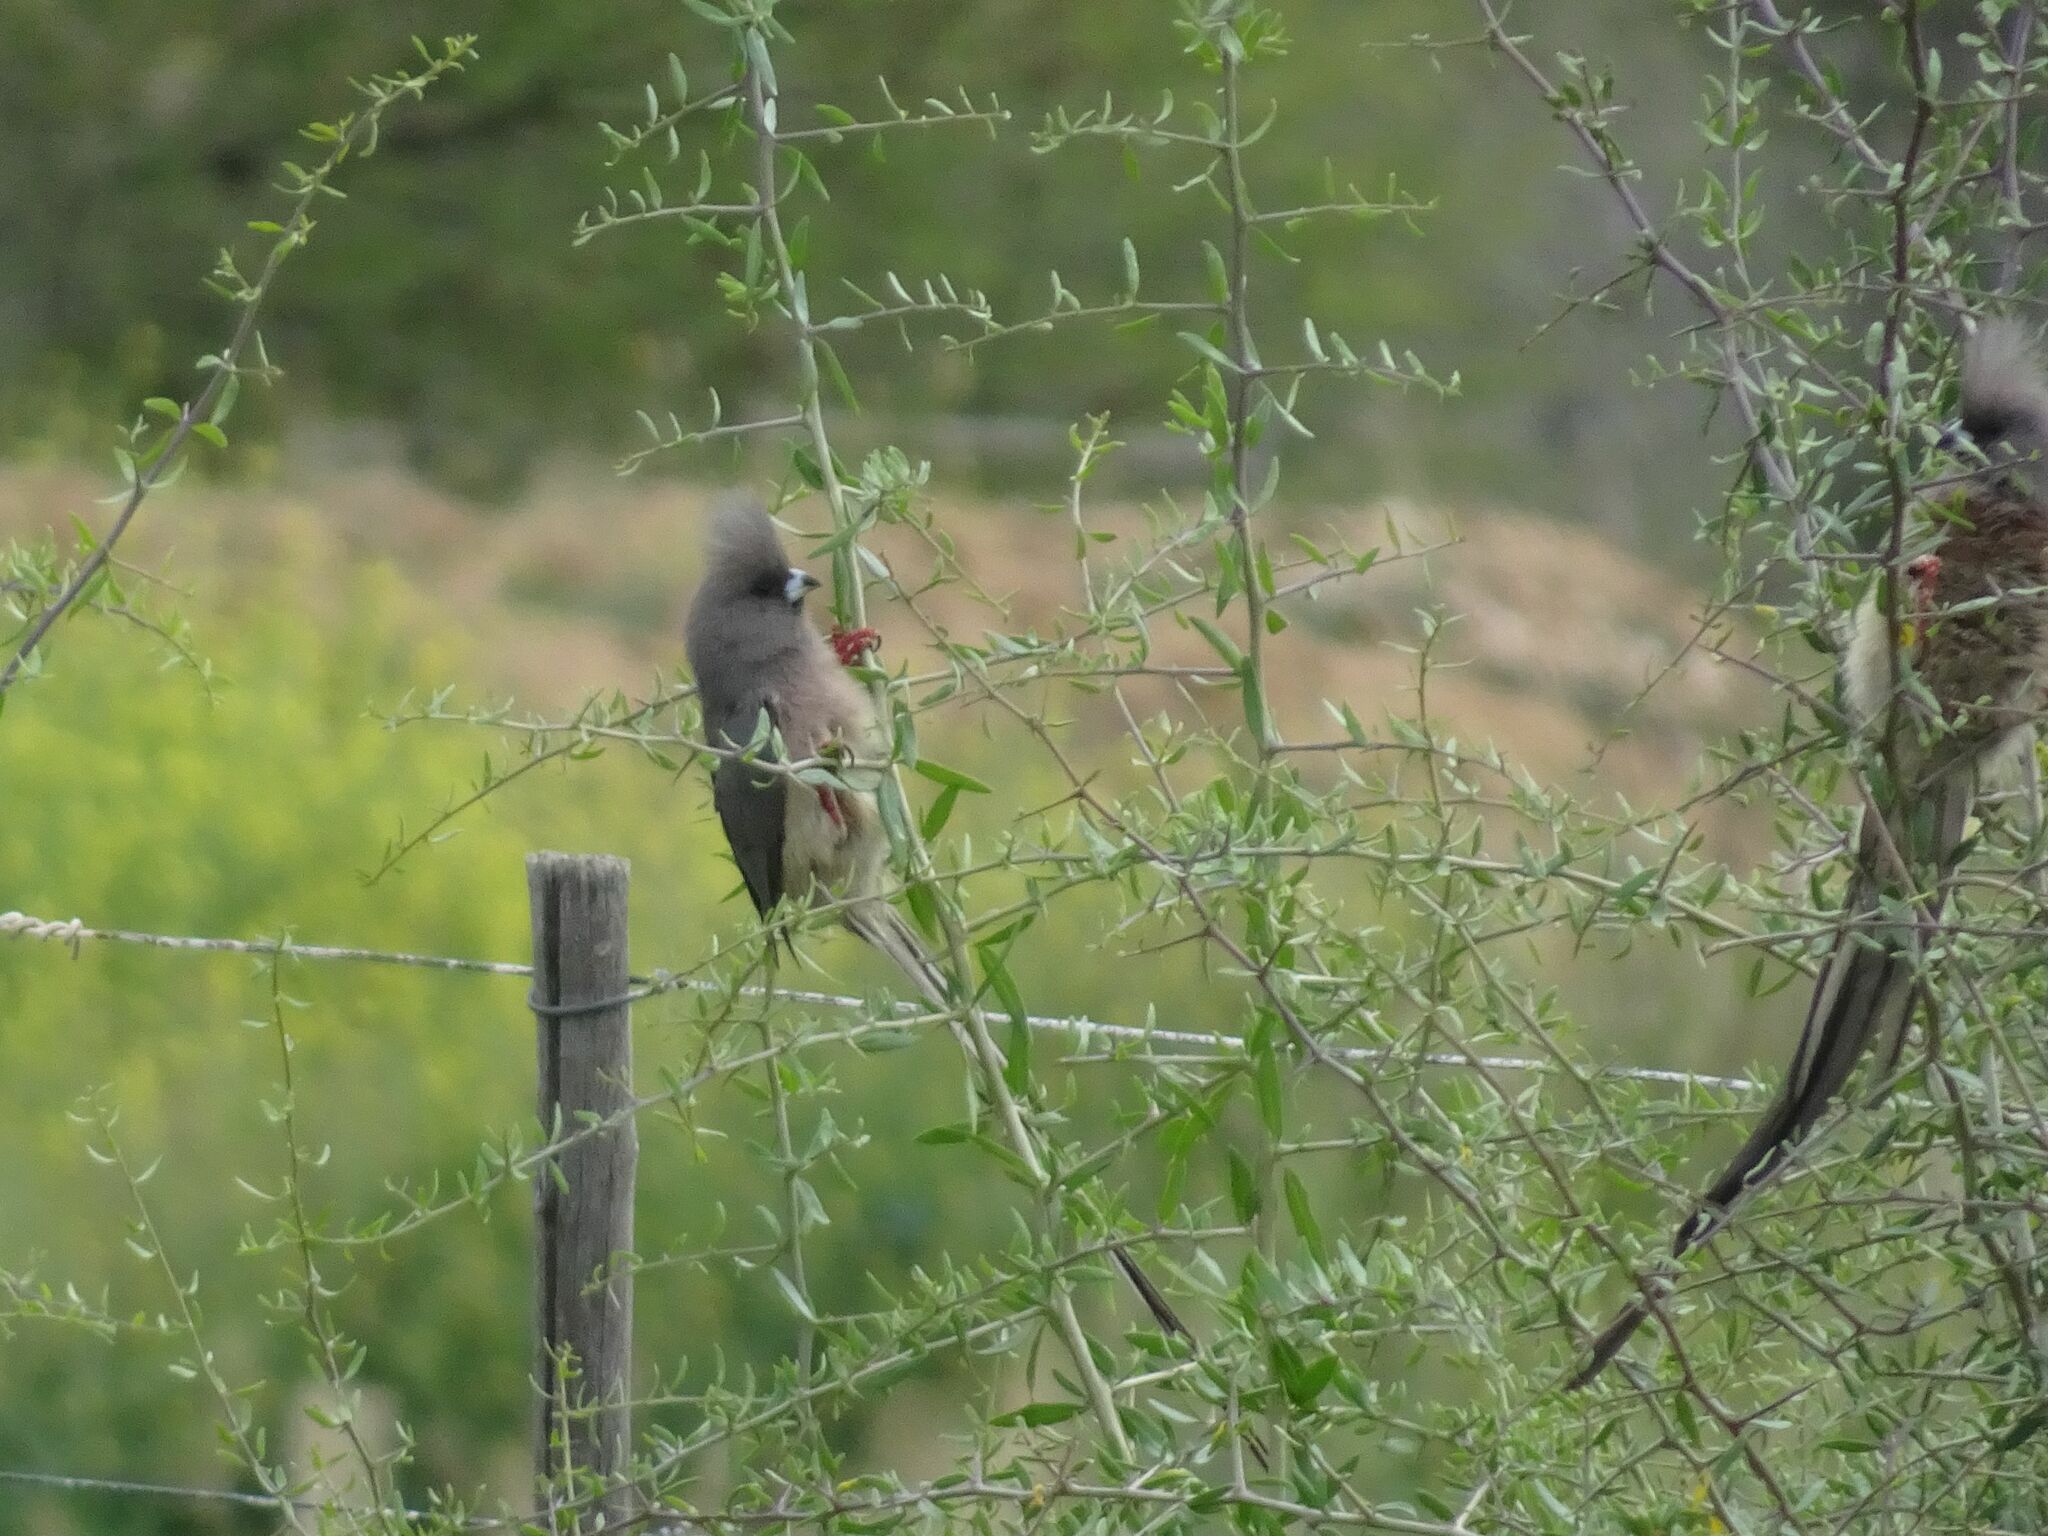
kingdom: Animalia
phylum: Chordata
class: Aves
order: Coliiformes
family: Coliidae
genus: Colius
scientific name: Colius colius
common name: White-backed mousebird
